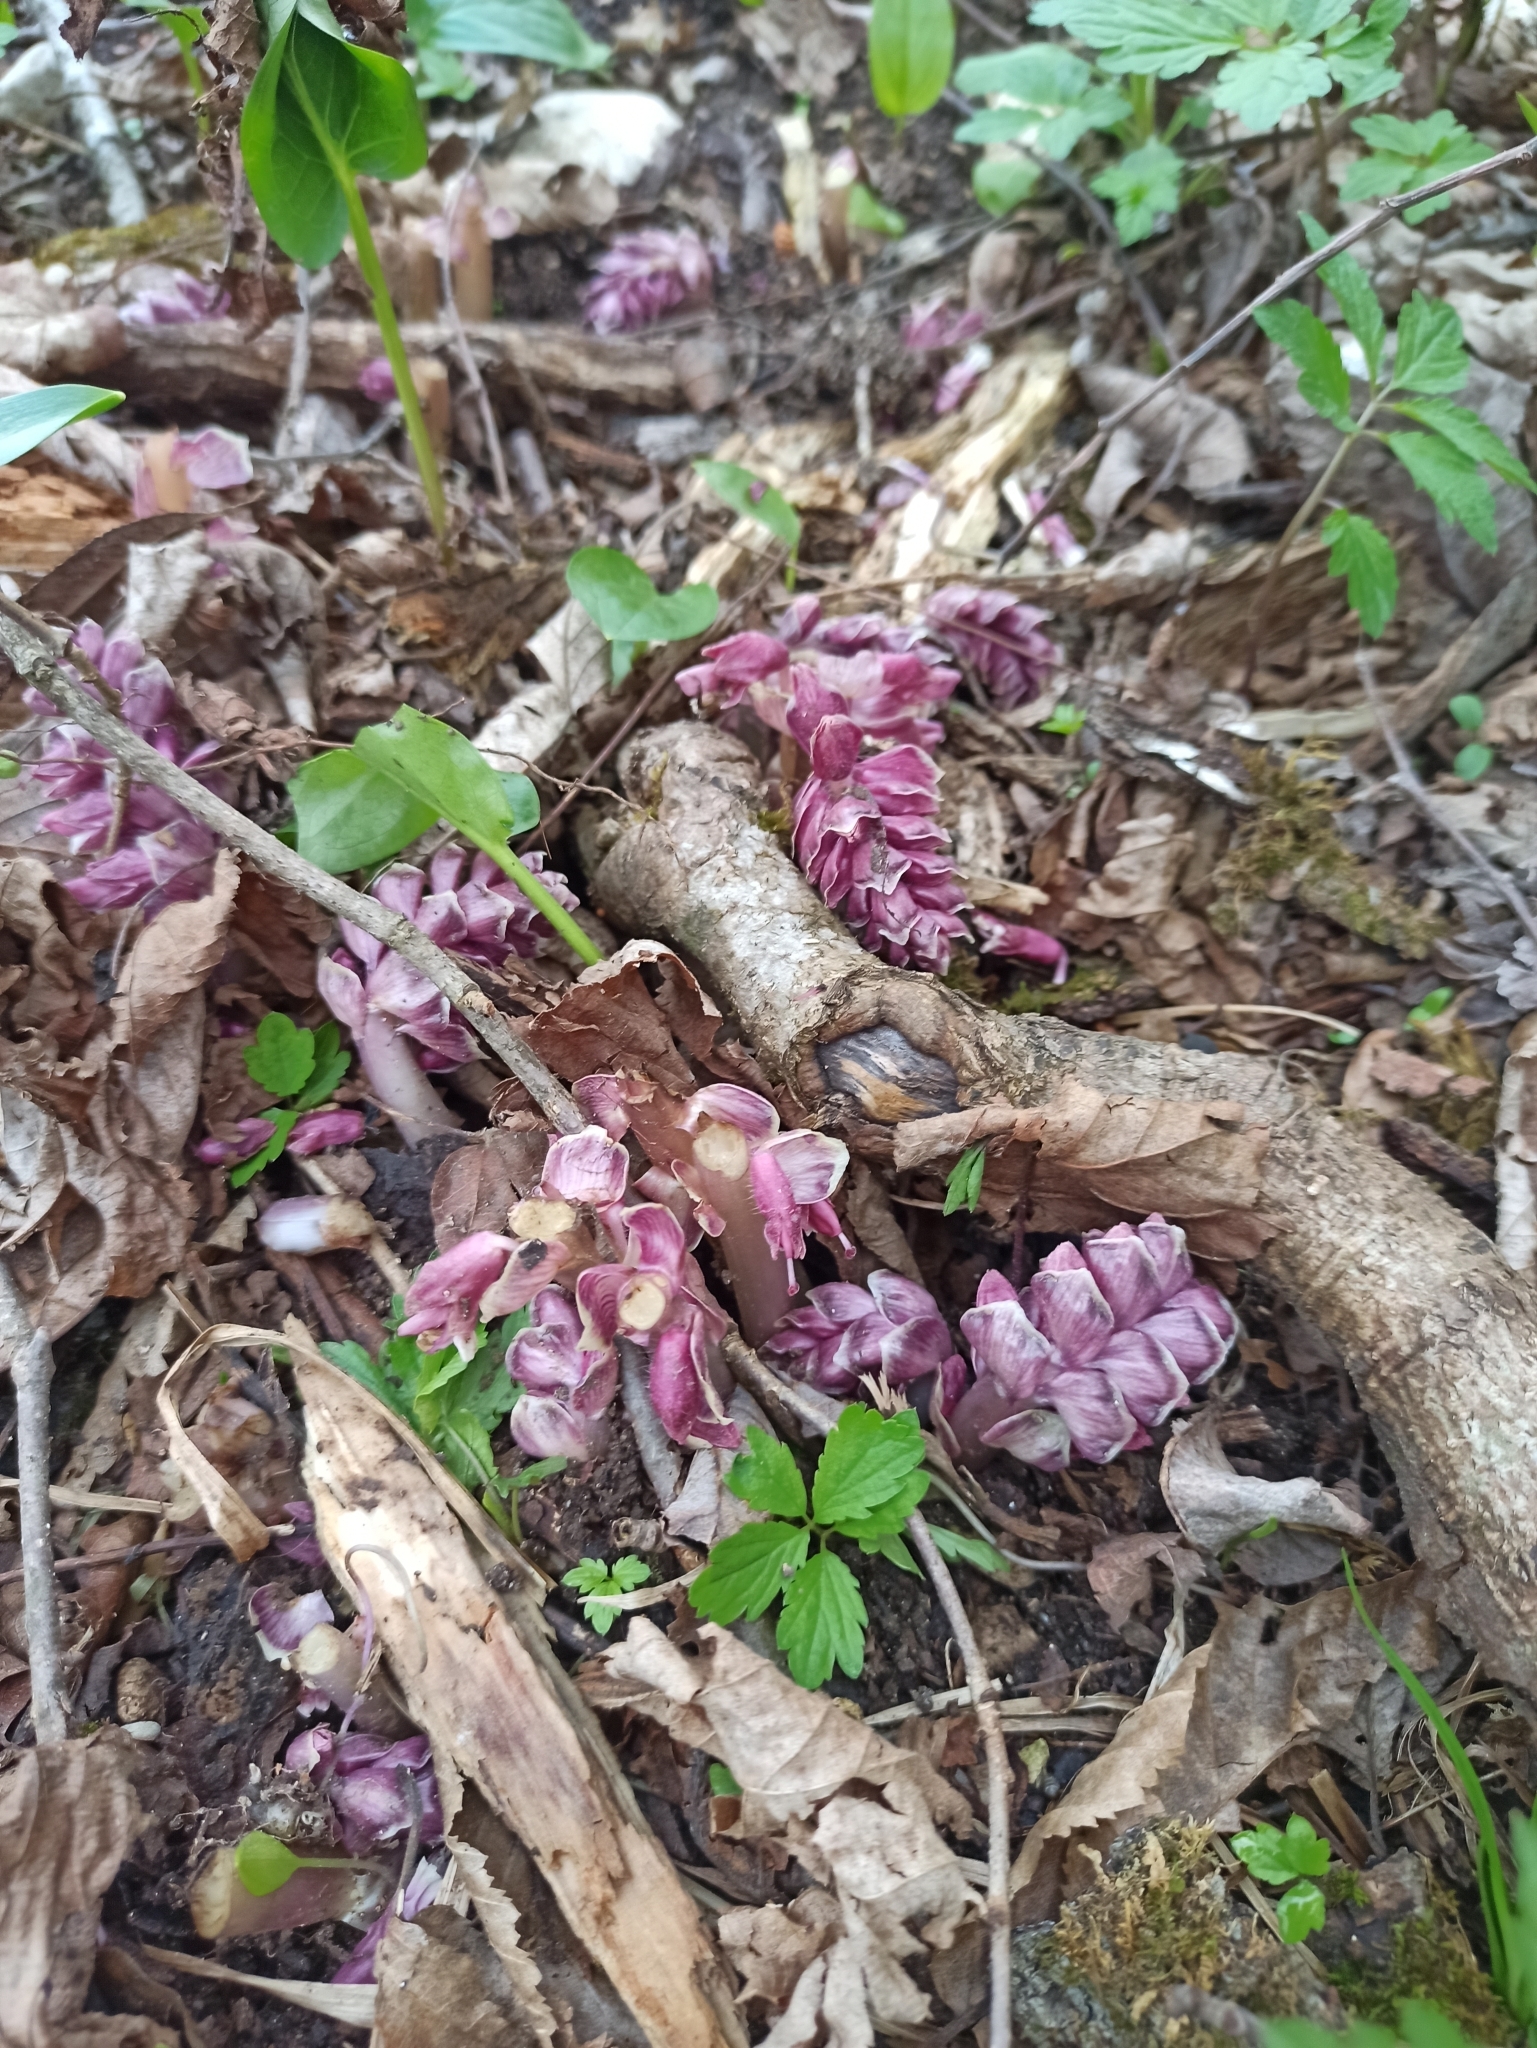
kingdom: Plantae
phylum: Tracheophyta
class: Magnoliopsida
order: Lamiales
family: Orobanchaceae
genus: Lathraea
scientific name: Lathraea squamaria
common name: Toothwort
